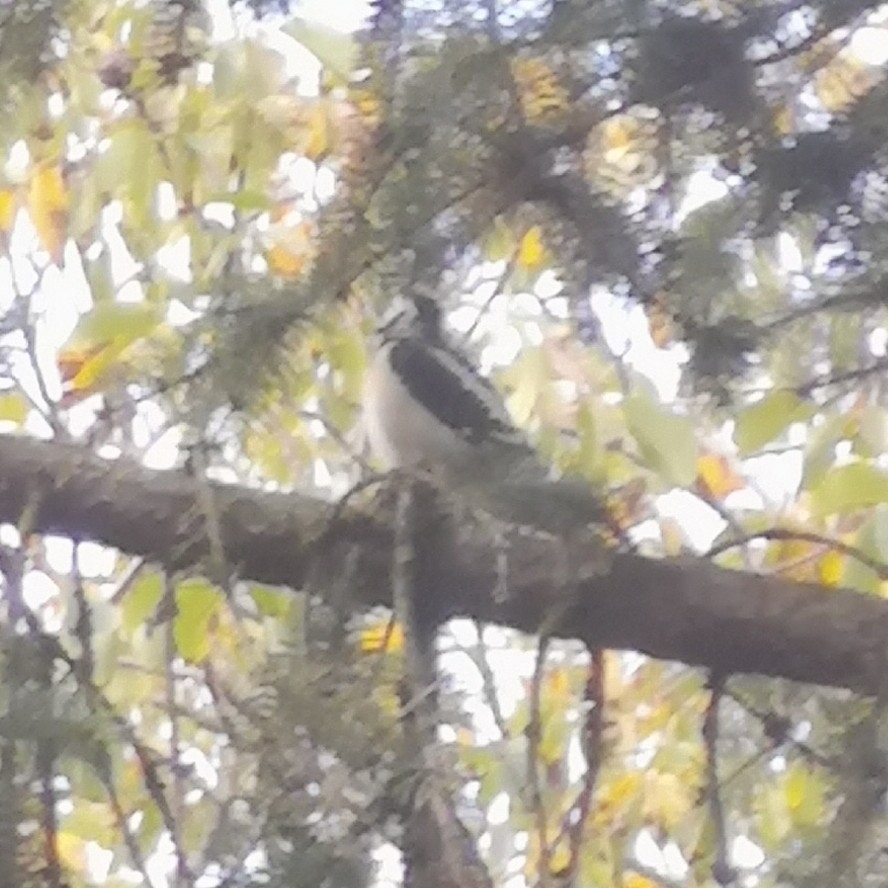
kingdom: Animalia
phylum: Chordata
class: Aves
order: Piciformes
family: Picidae
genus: Dendrocopos
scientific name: Dendrocopos major
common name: Great spotted woodpecker
